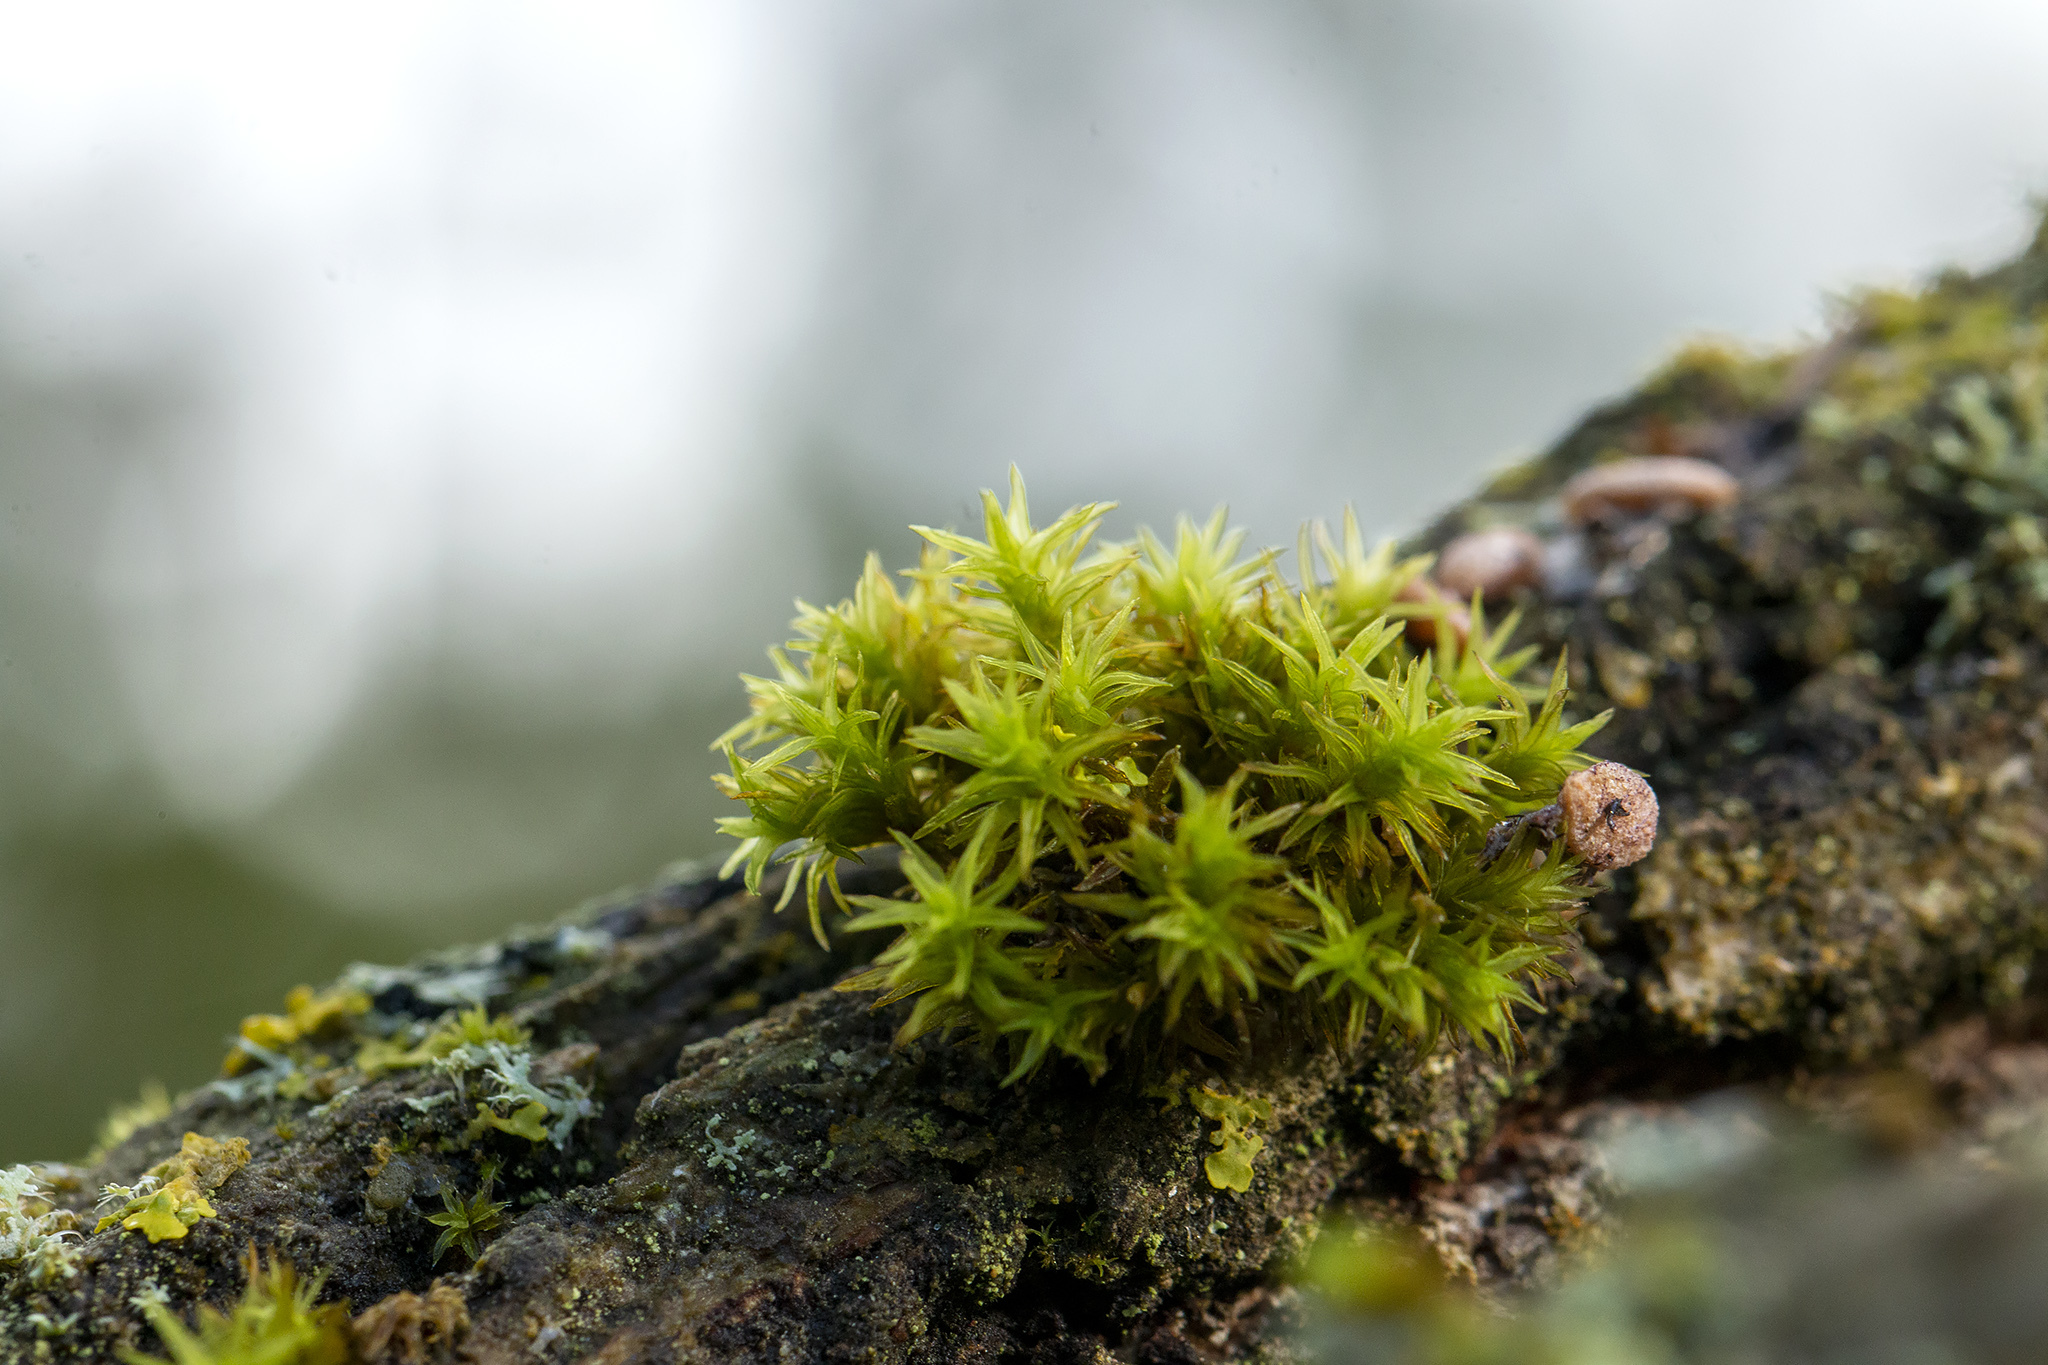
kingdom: Plantae
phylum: Bryophyta
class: Bryopsida
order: Orthotrichales
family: Orthotrichaceae
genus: Lewinskya
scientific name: Lewinskya affinis
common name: Wood bristle-moss
